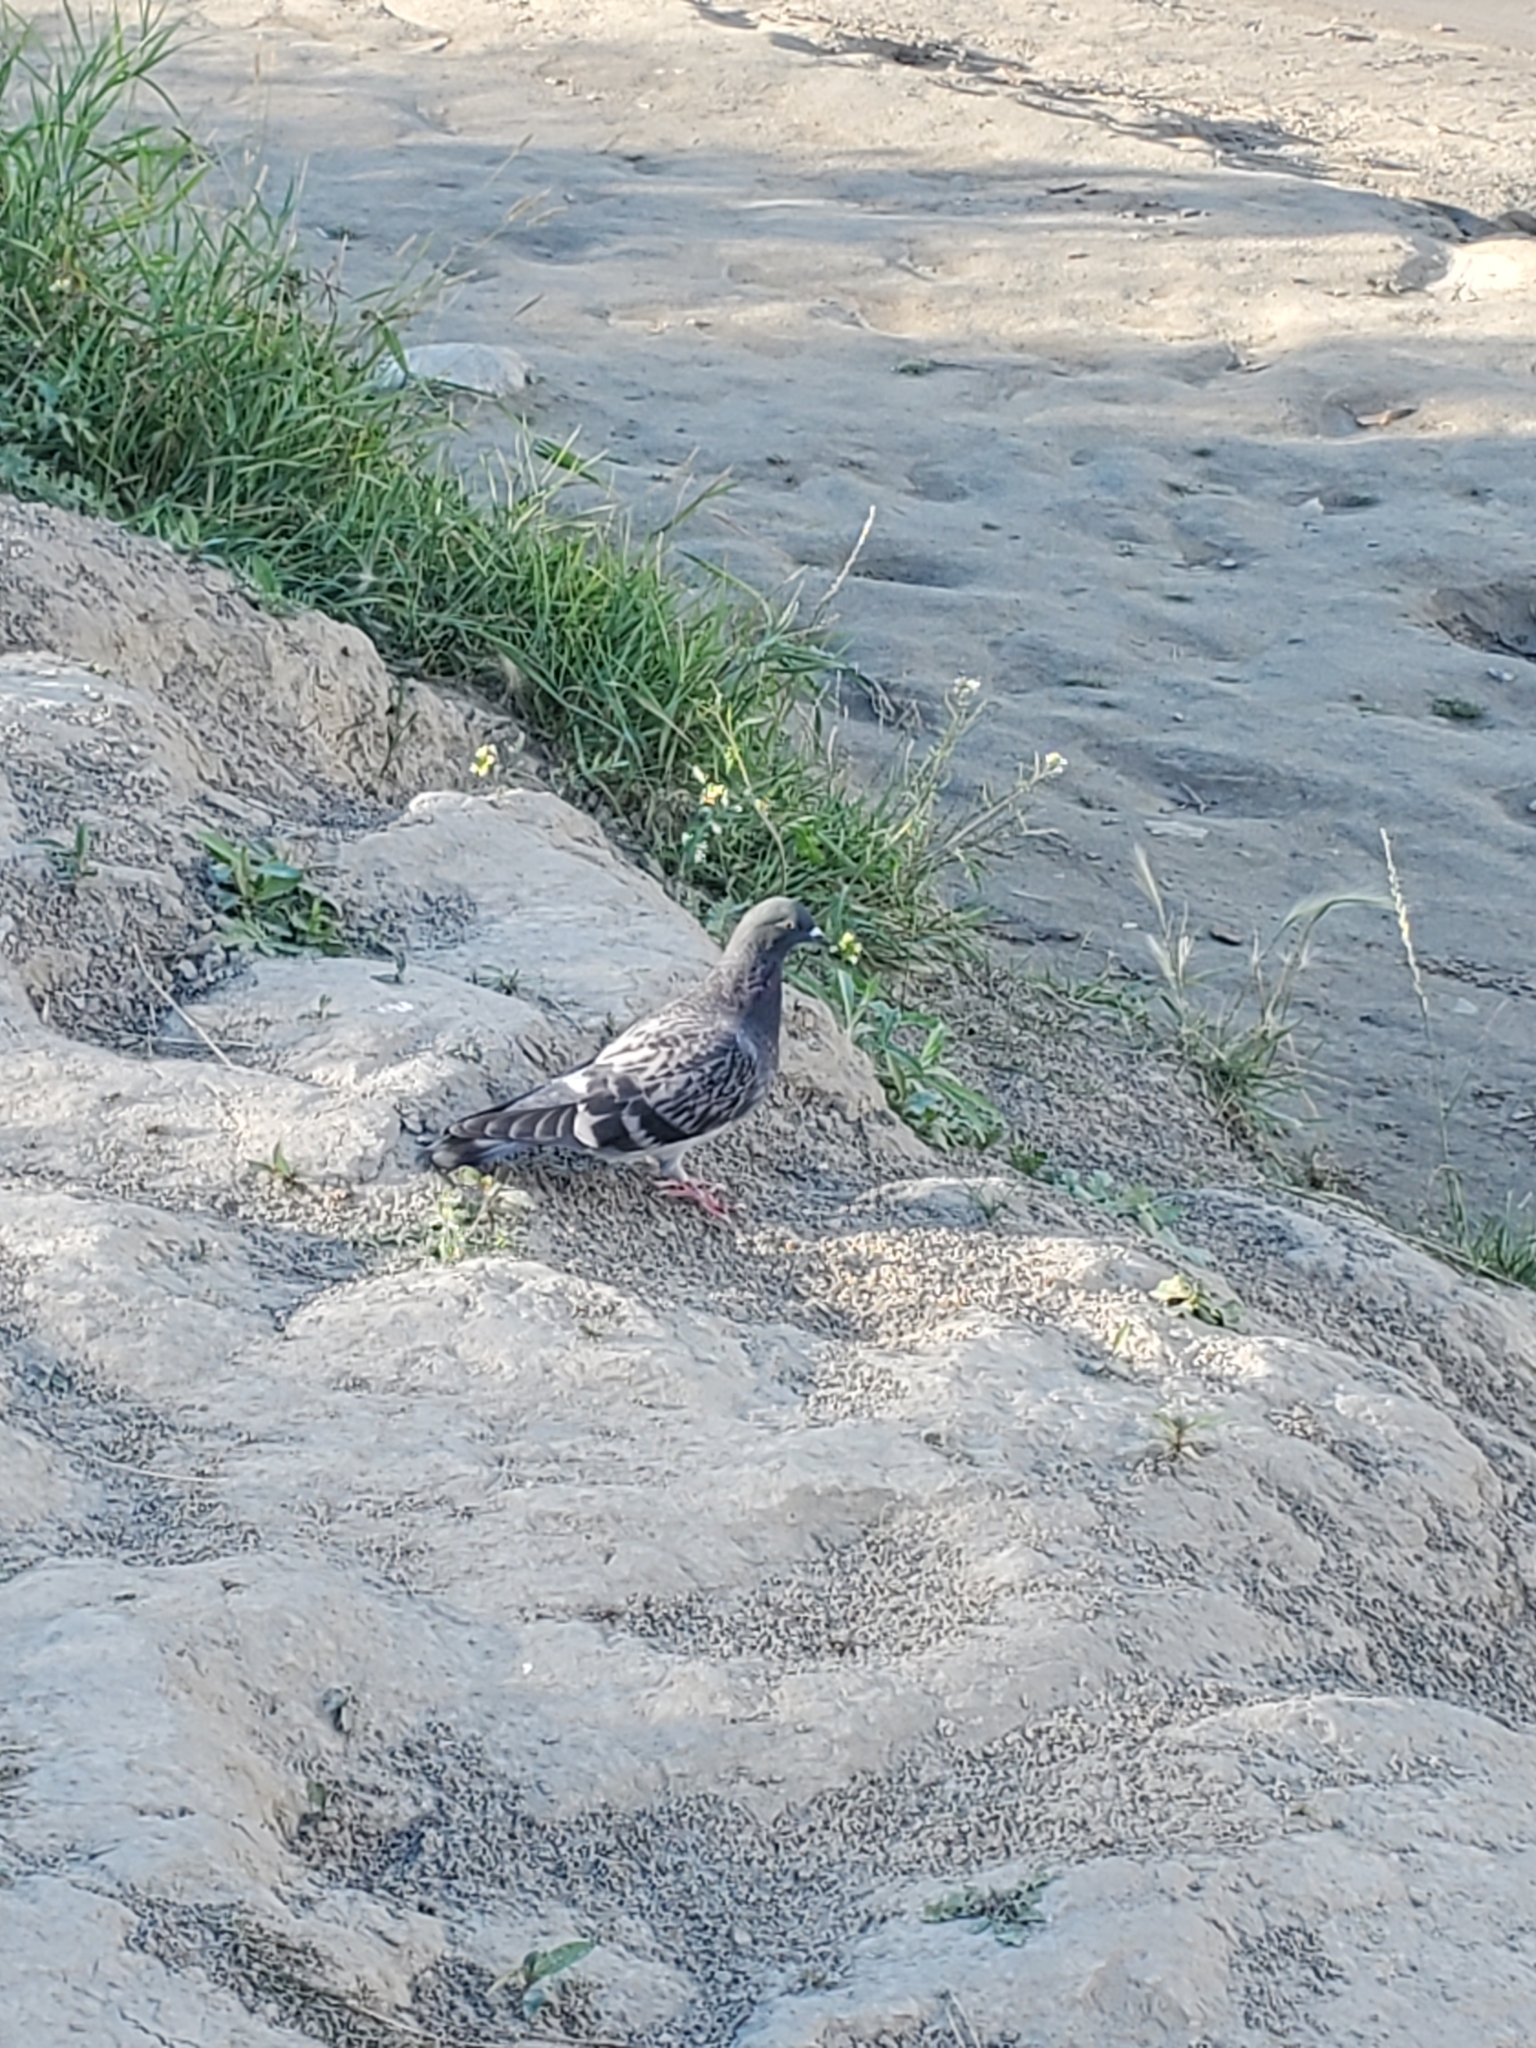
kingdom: Animalia
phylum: Chordata
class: Aves
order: Columbiformes
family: Columbidae
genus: Columba
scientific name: Columba livia
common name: Rock pigeon
